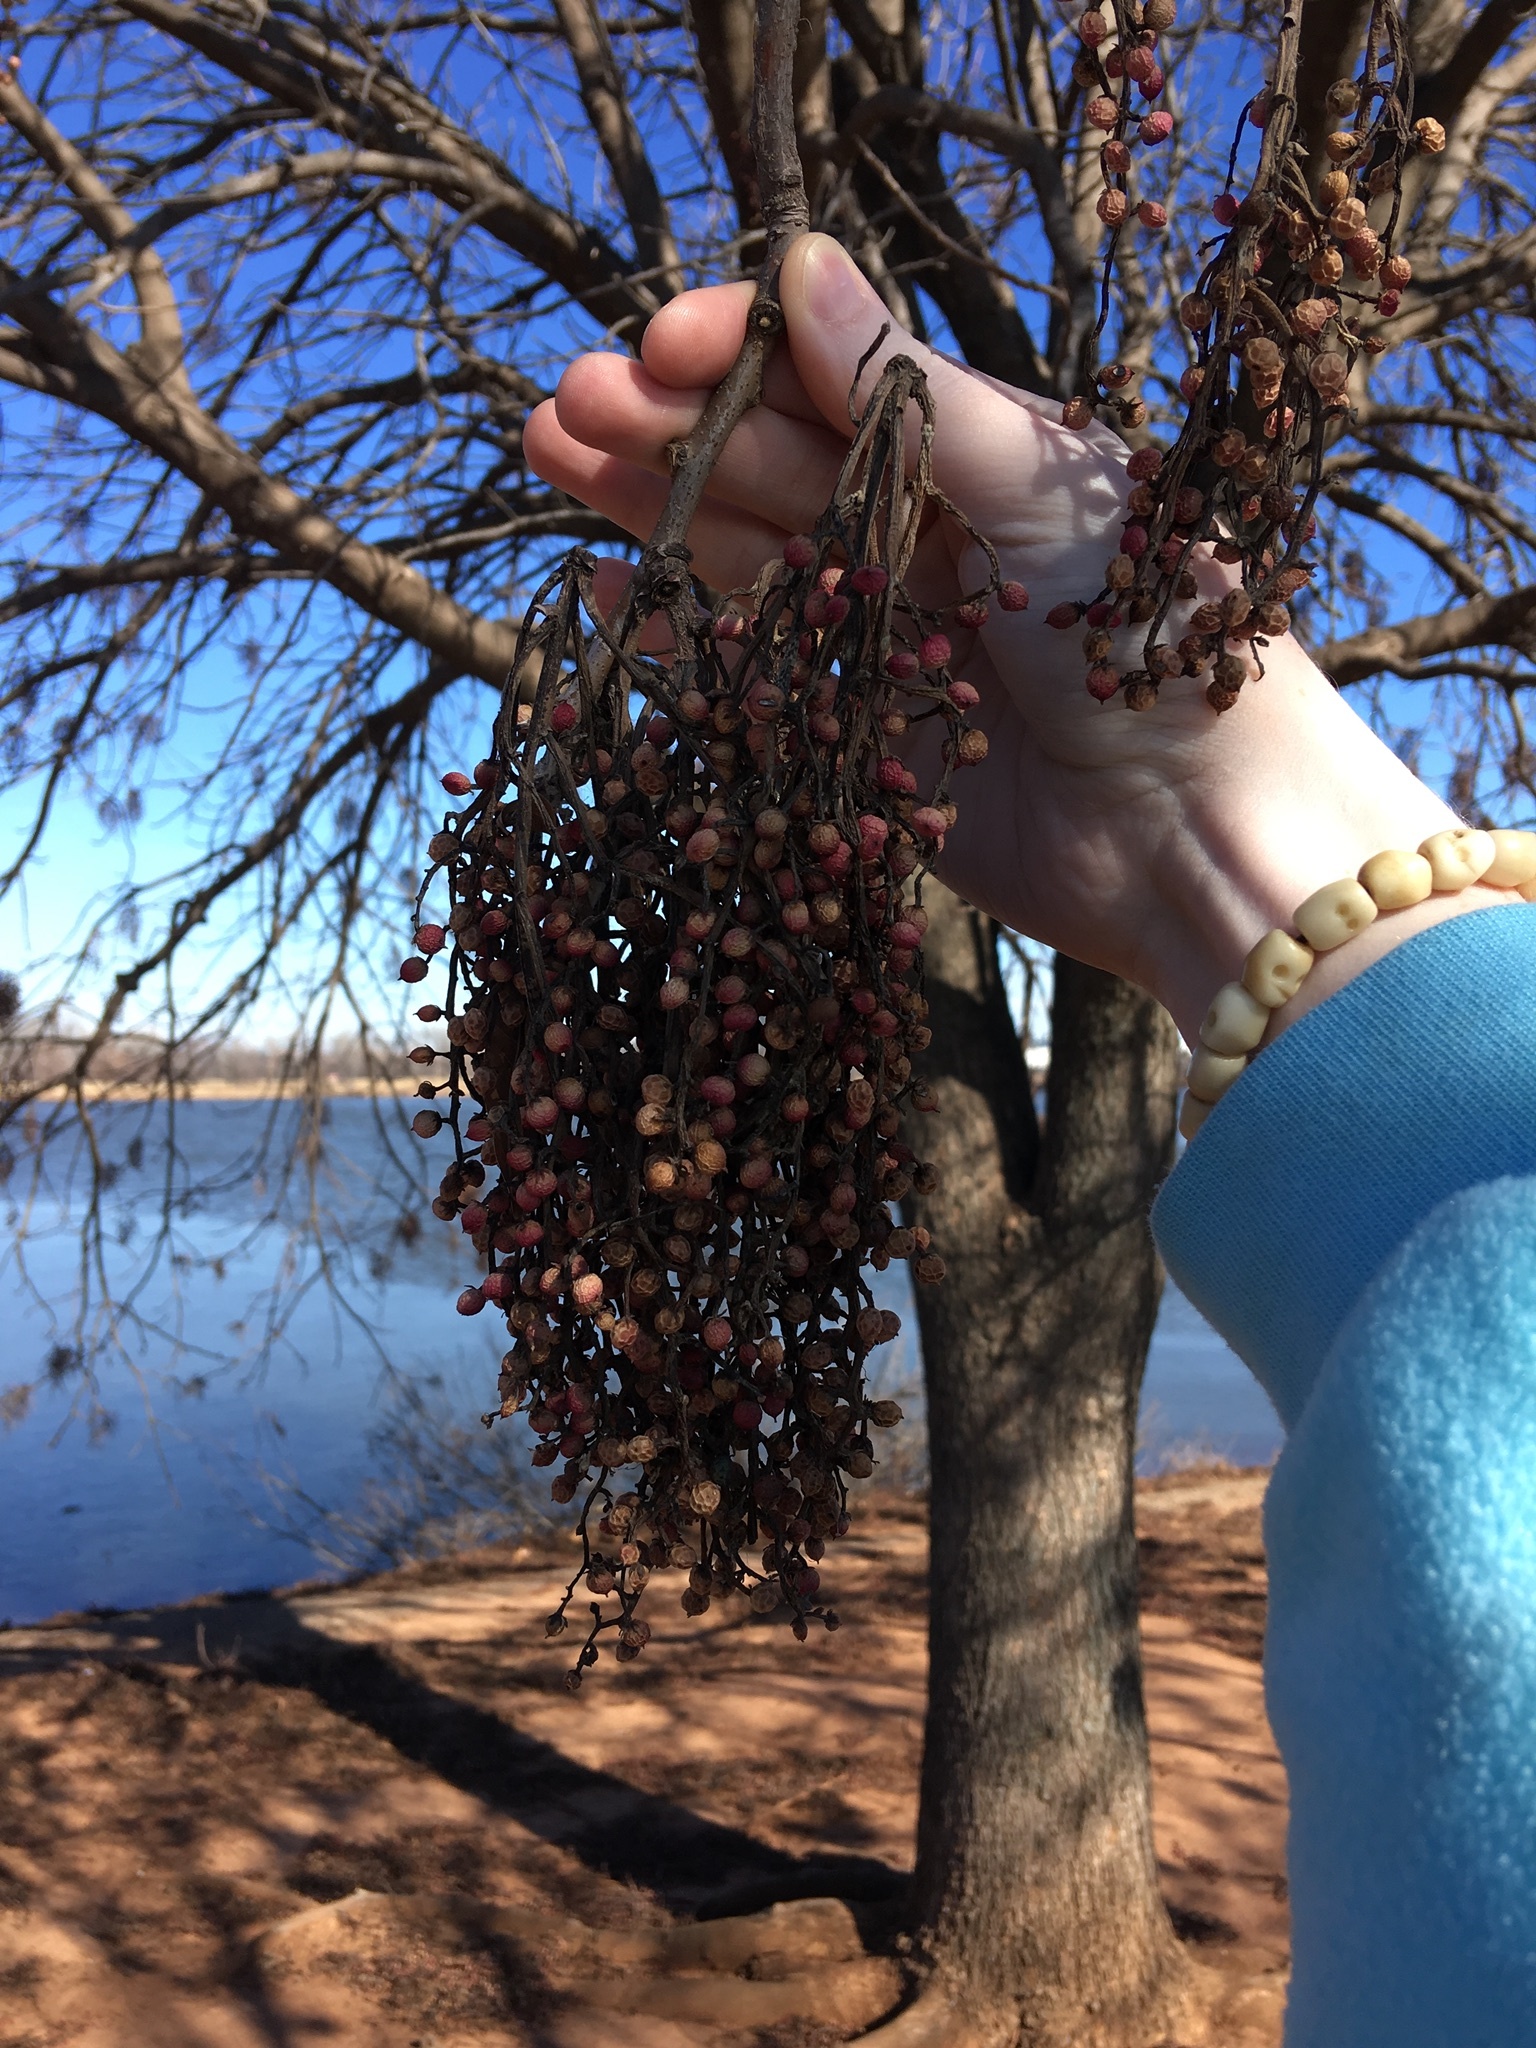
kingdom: Plantae
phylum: Tracheophyta
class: Magnoliopsida
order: Sapindales
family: Anacardiaceae
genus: Pistacia
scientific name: Pistacia chinensis
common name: Chinese pistache
